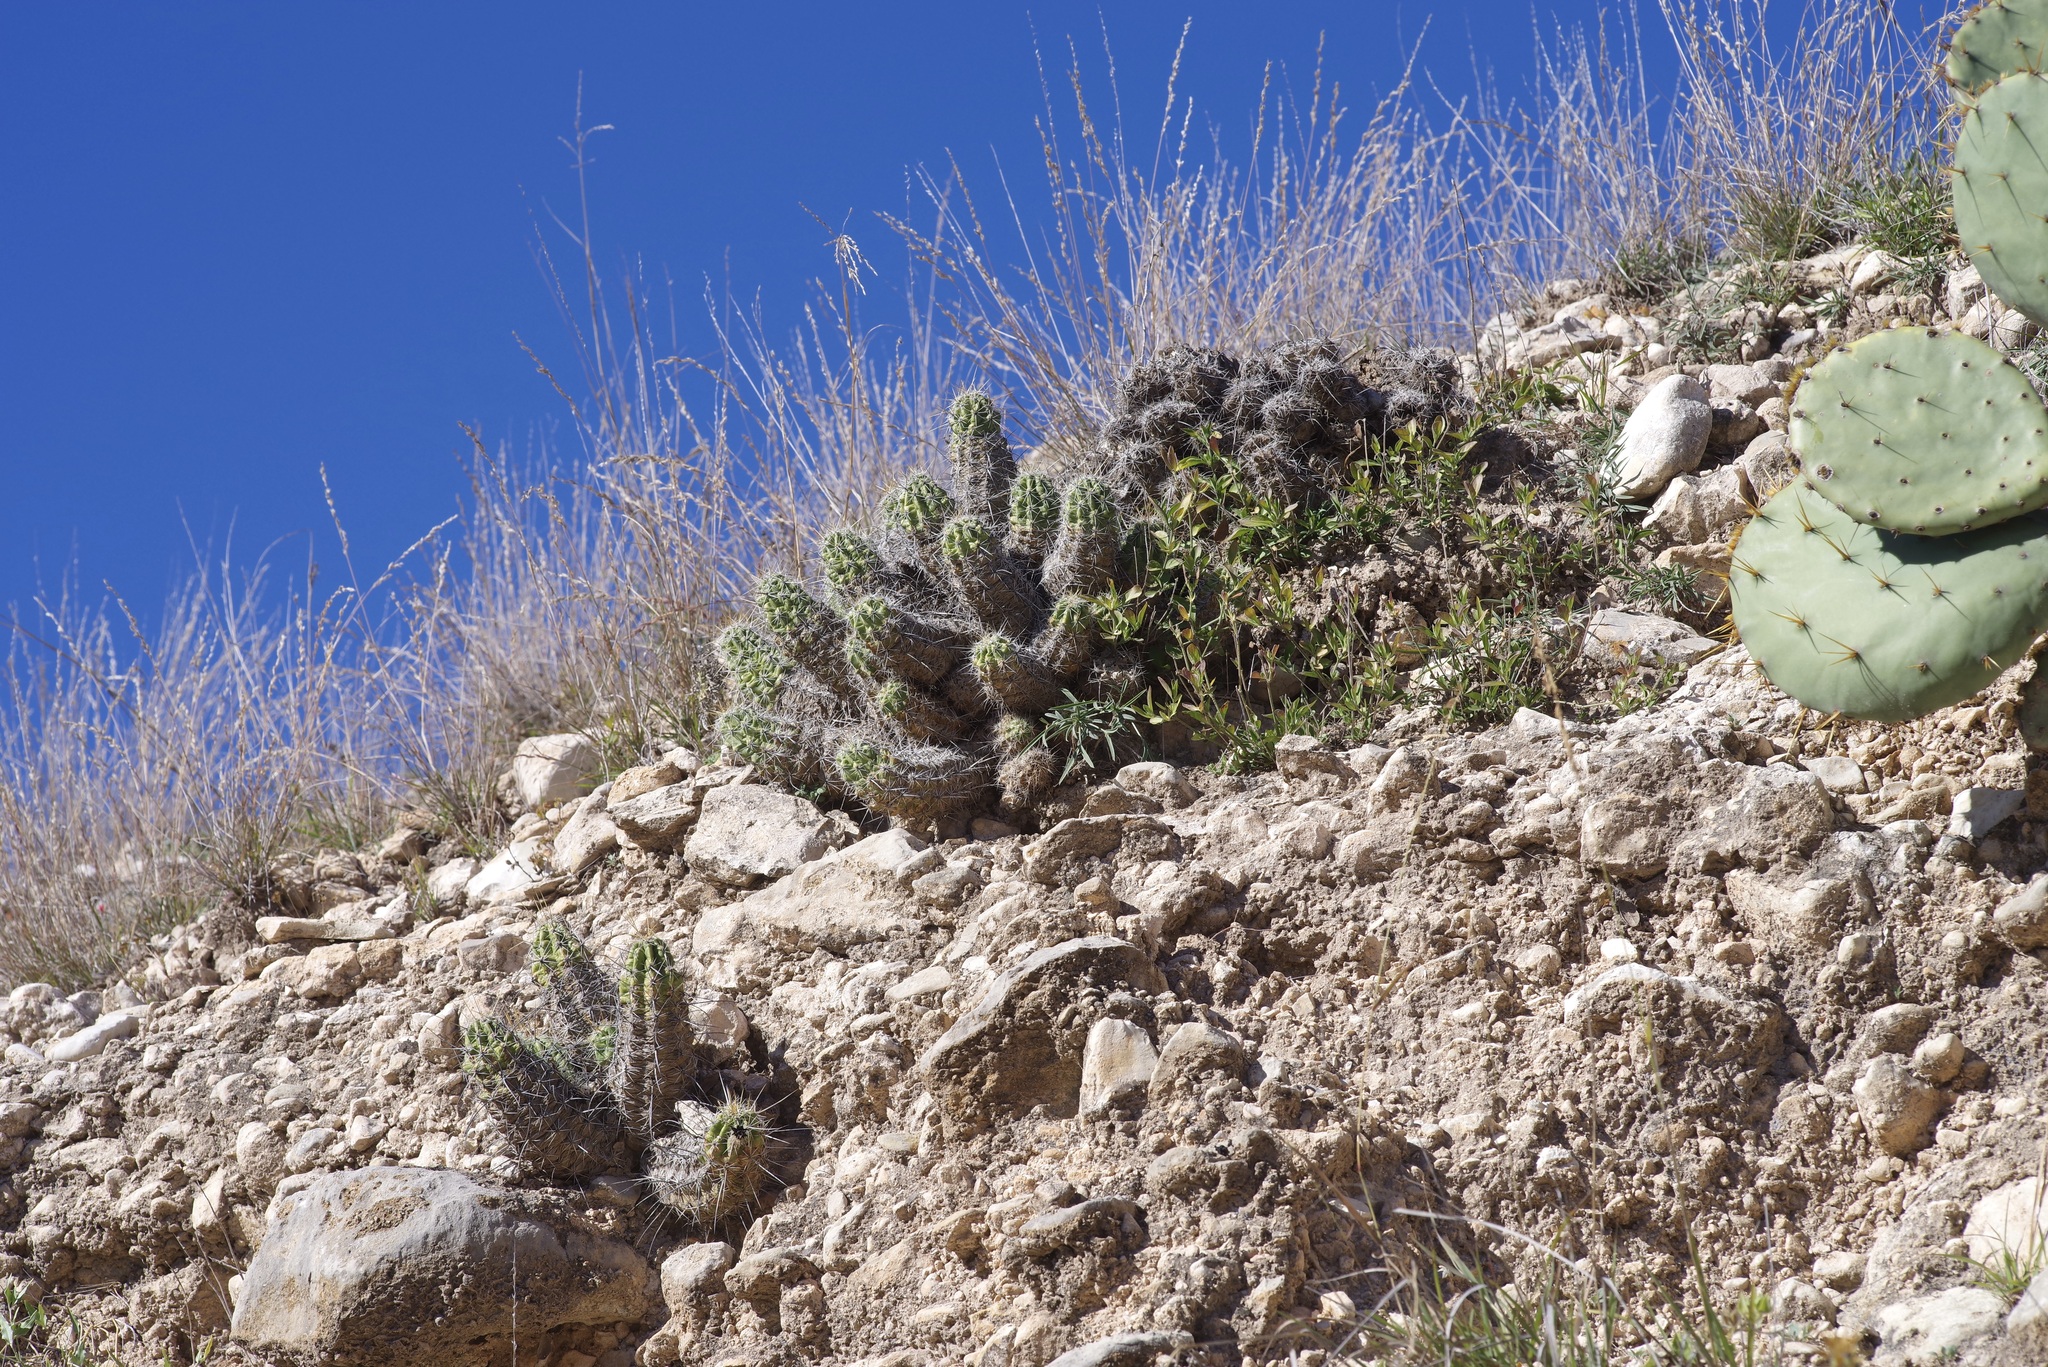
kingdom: Plantae
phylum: Tracheophyta
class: Magnoliopsida
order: Caryophyllales
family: Cactaceae
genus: Echinocereus
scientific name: Echinocereus enneacanthus
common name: Pitaya
